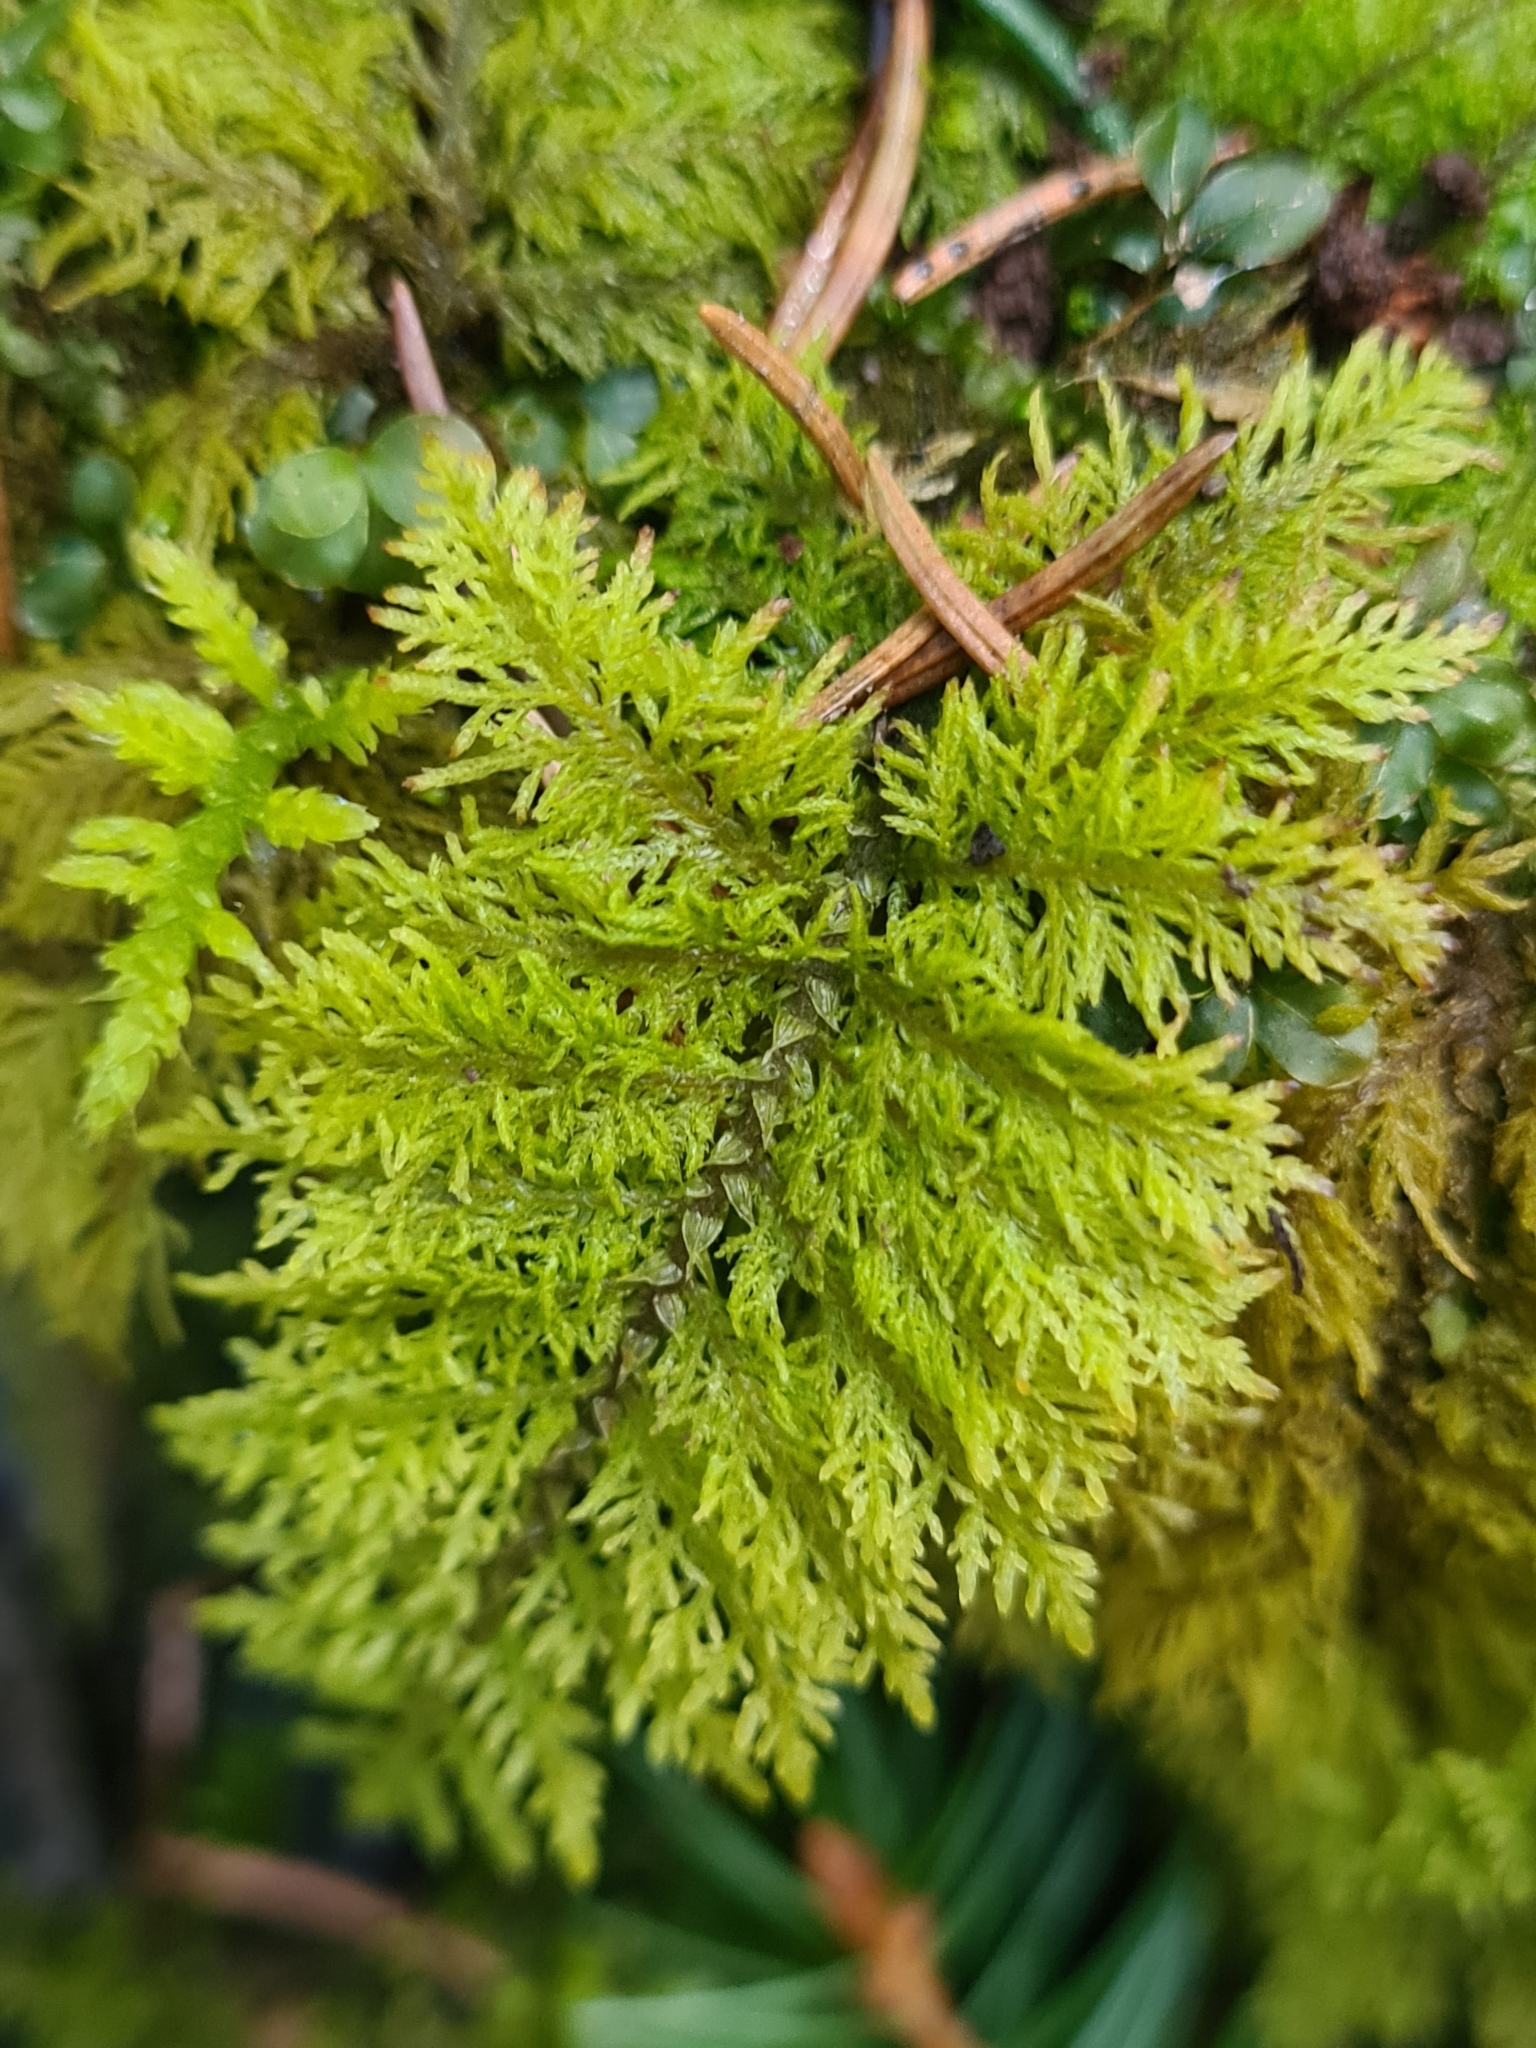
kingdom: Plantae
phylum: Bryophyta
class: Bryopsida
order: Hypnales
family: Thuidiaceae
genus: Thuidium
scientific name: Thuidium tamariscinum
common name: Common tamarisk-moss
